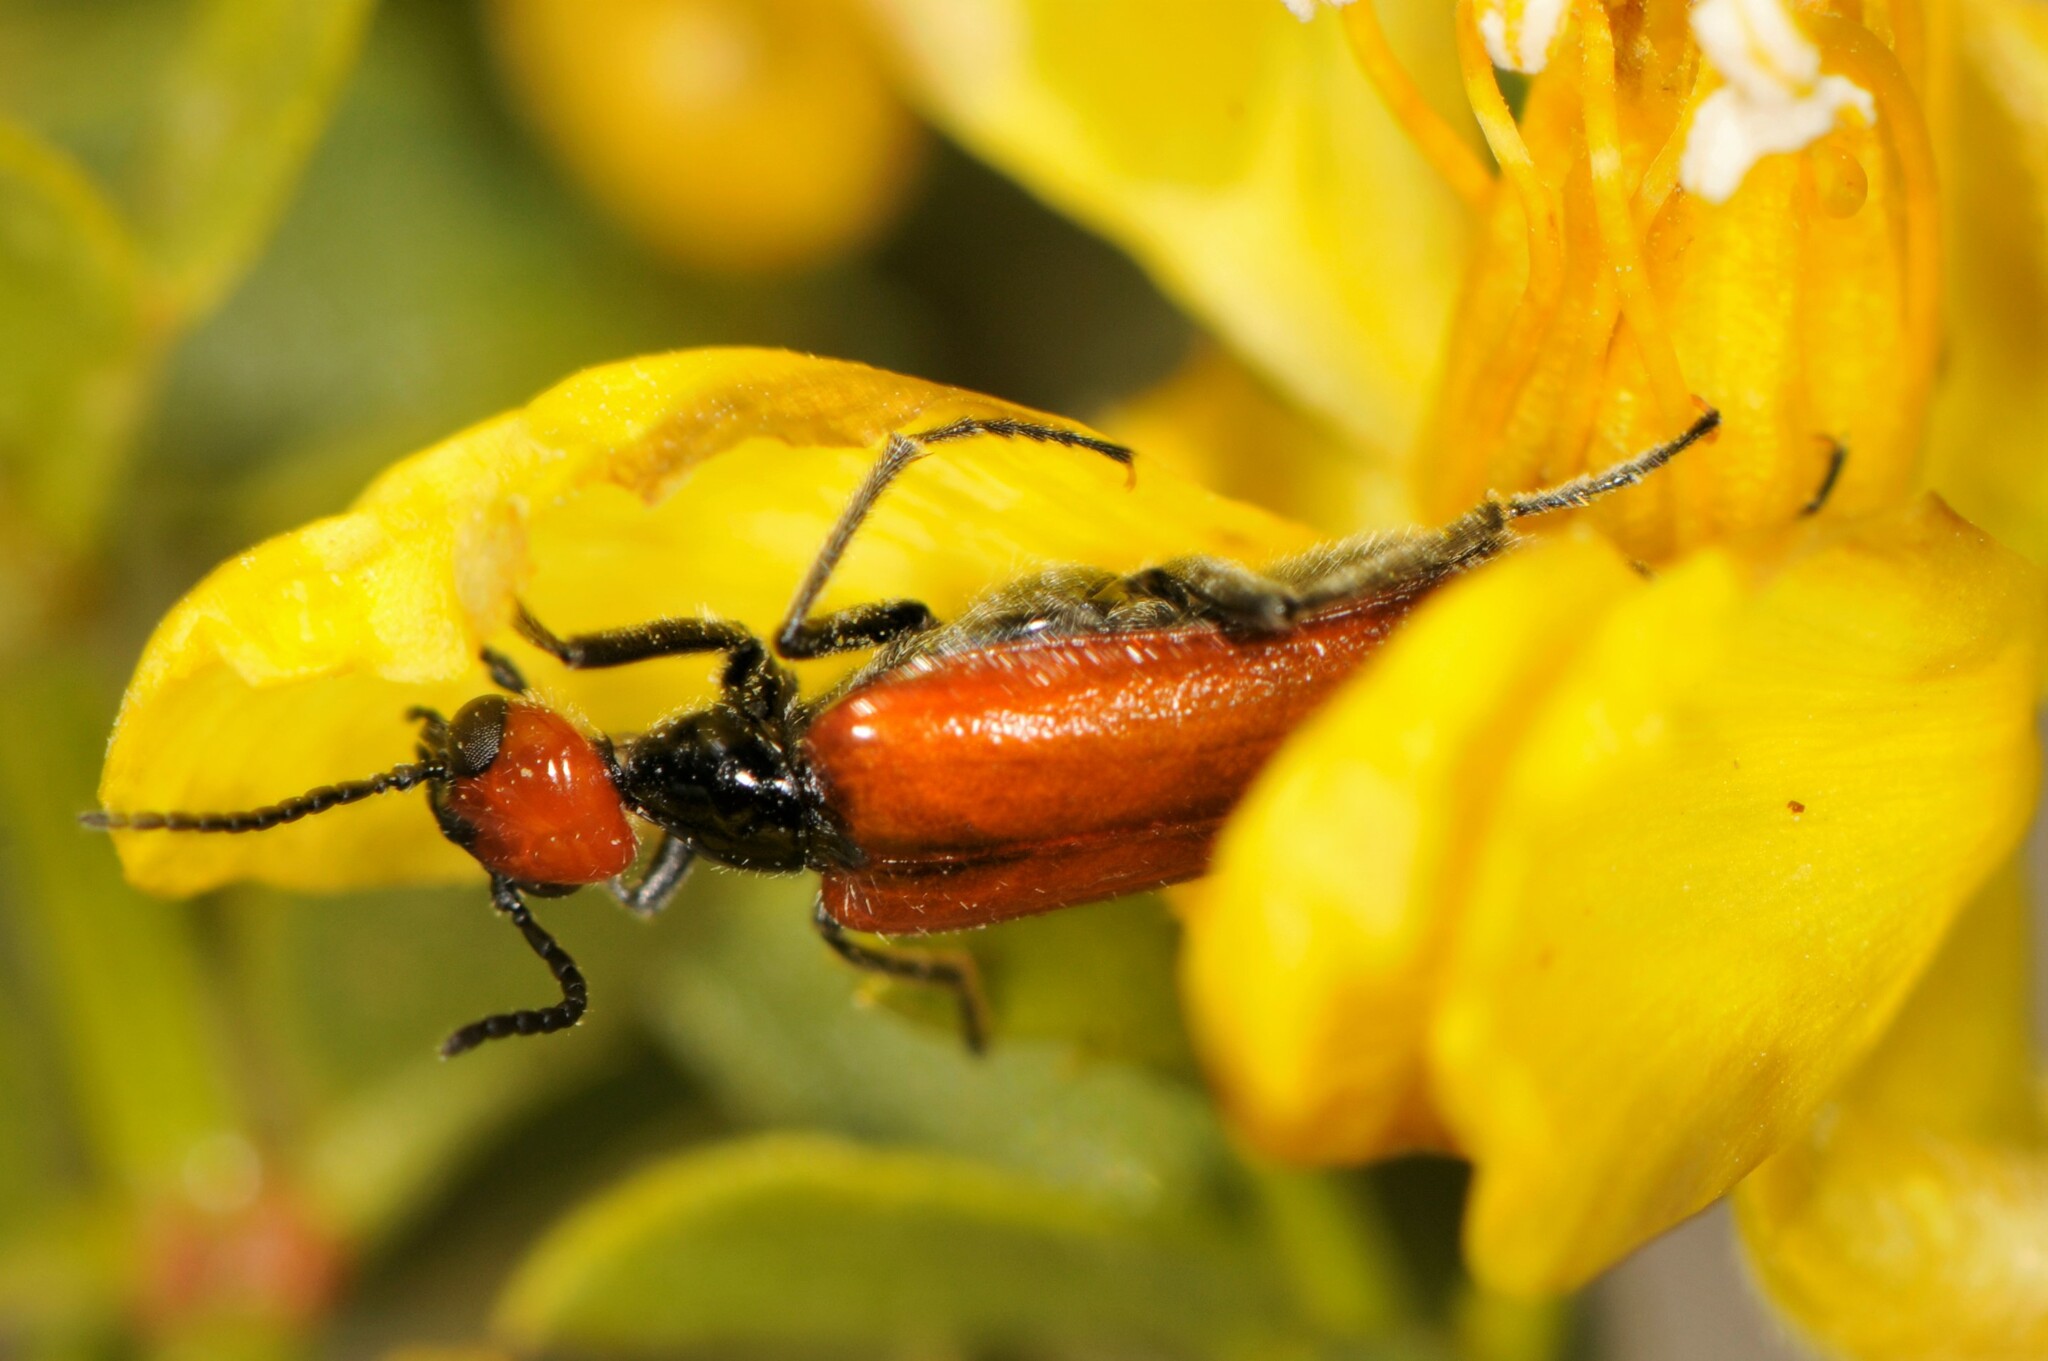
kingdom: Animalia
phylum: Arthropoda
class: Insecta
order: Coleoptera
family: Meloidae
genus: Eupompha
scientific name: Eupompha schwarzi
